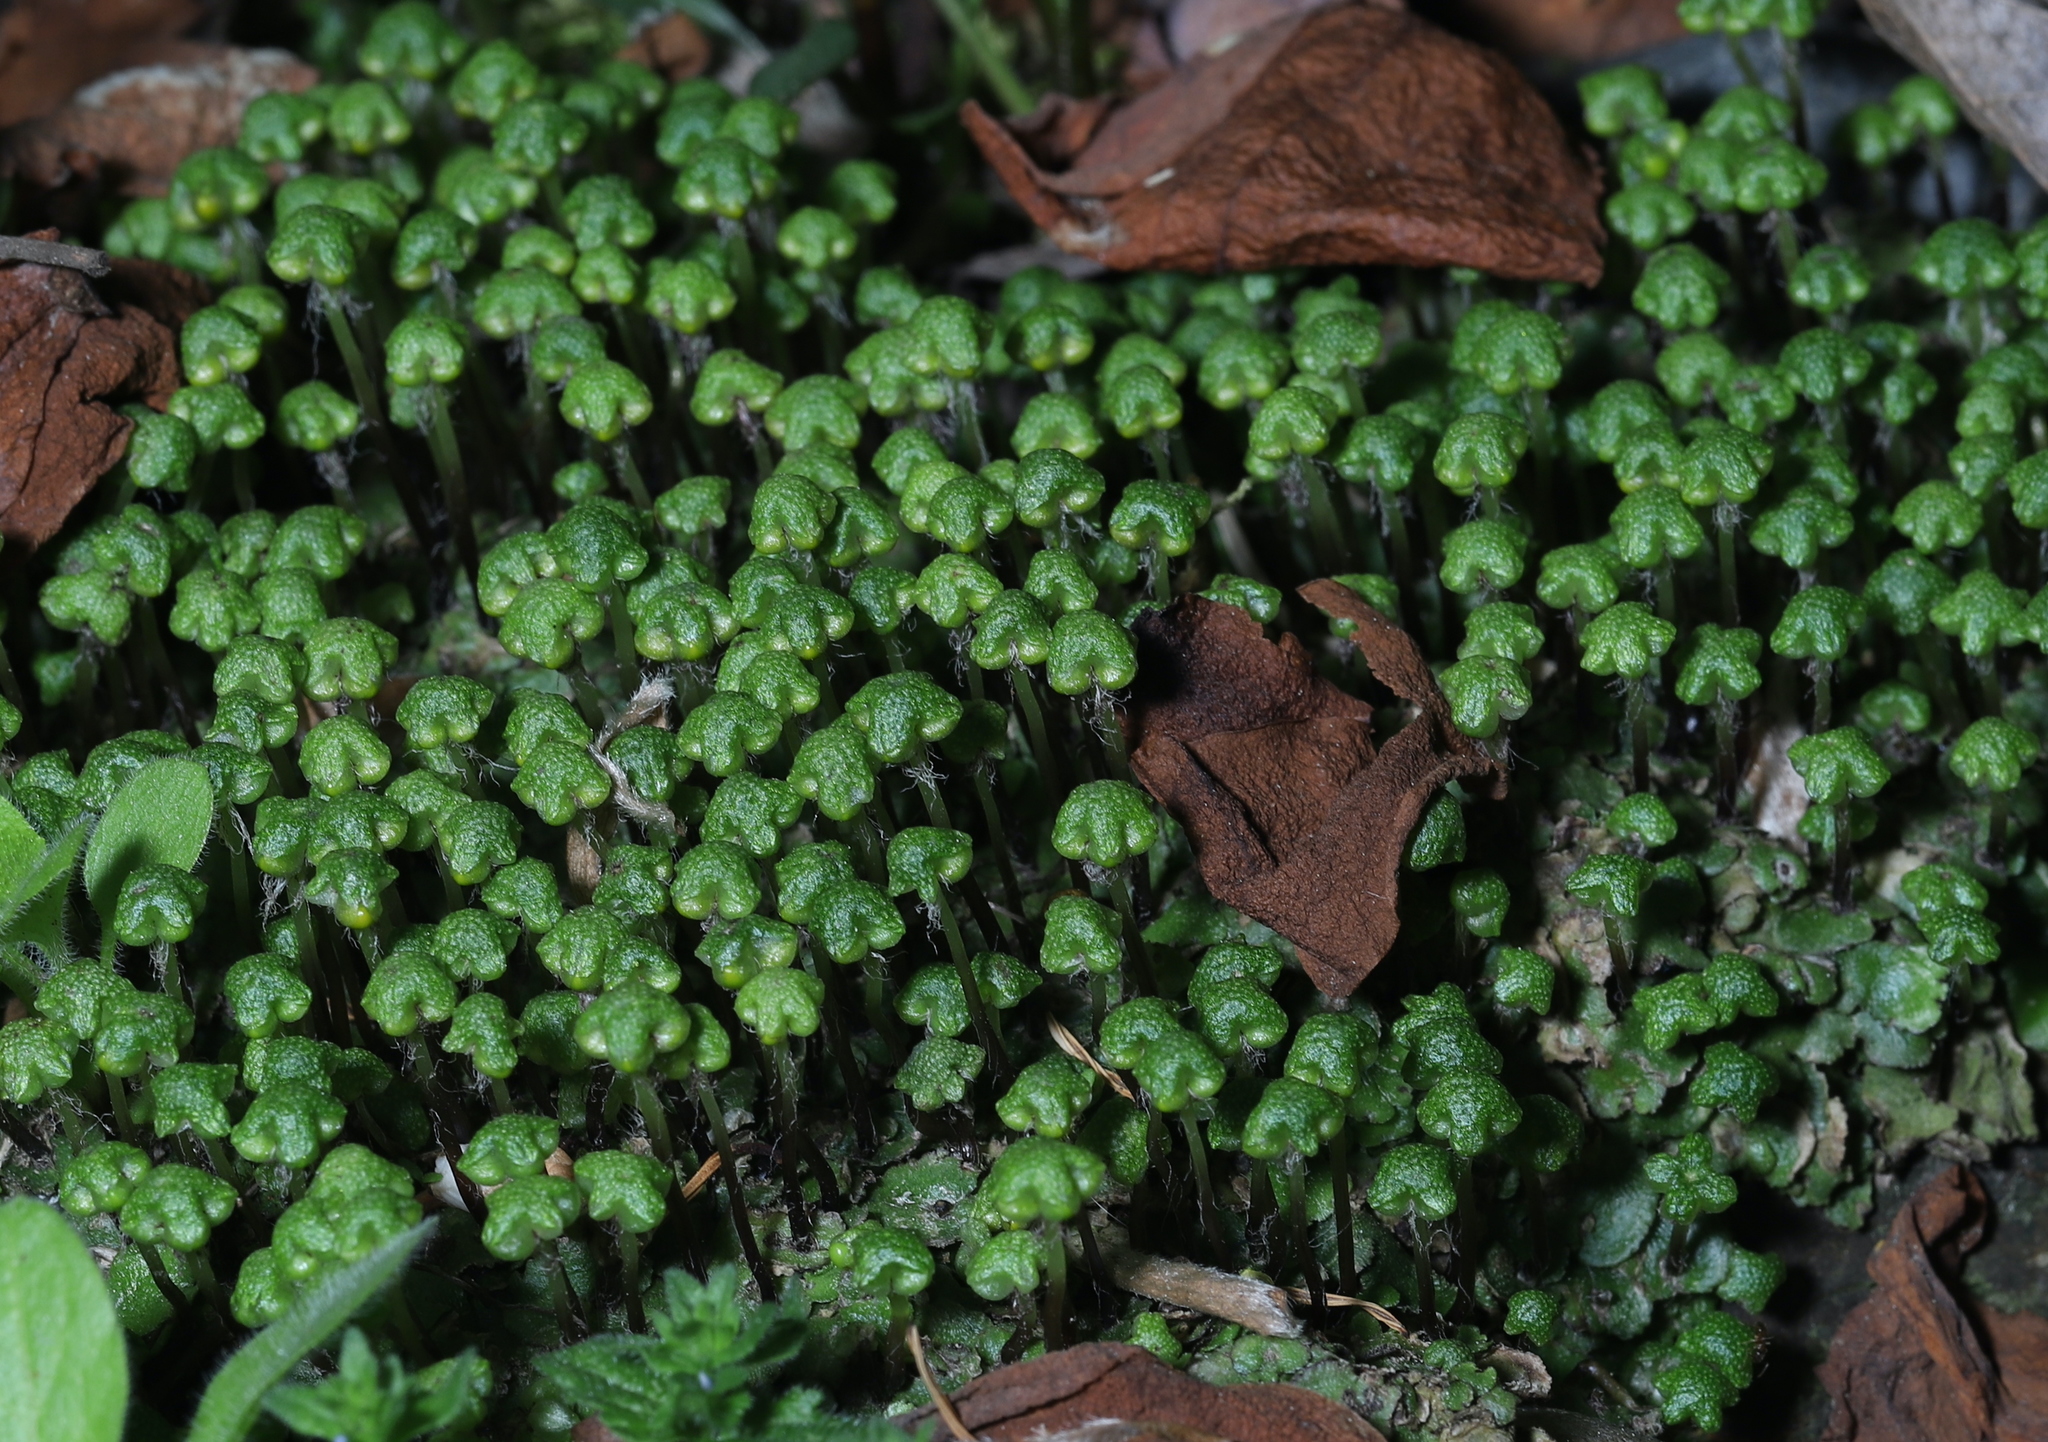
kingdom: Plantae
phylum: Marchantiophyta
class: Marchantiopsida
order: Marchantiales
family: Aytoniaceae
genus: Reboulia
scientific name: Reboulia hemisphaerica
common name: Purple-margined liverwort
